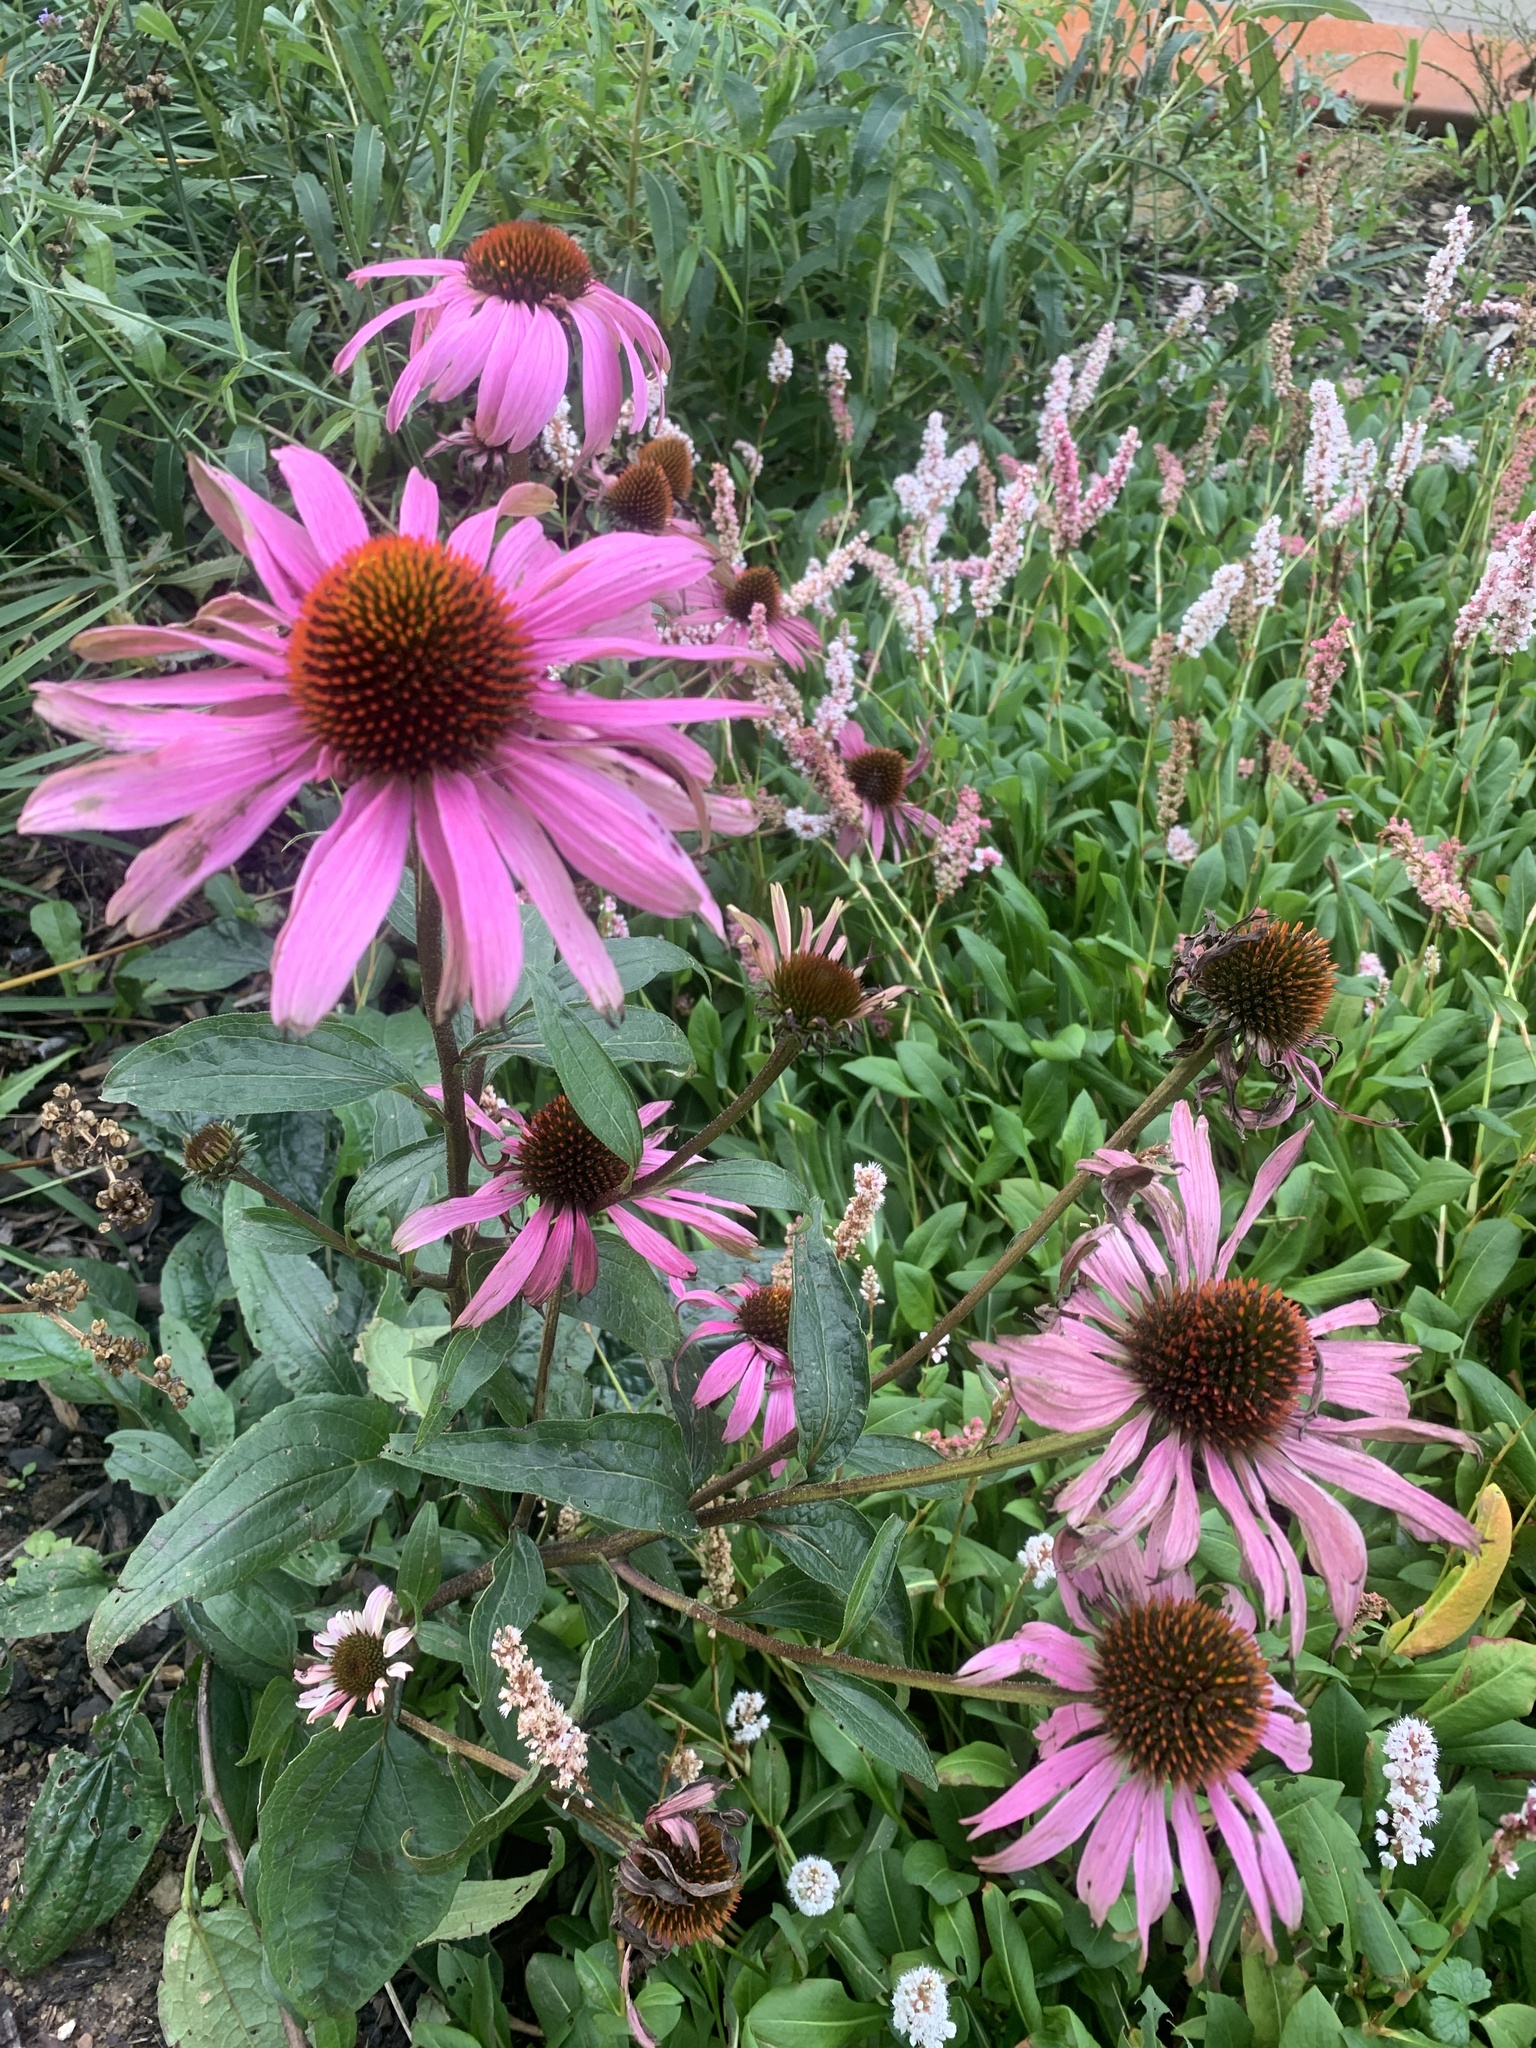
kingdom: Plantae
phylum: Tracheophyta
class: Magnoliopsida
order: Asterales
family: Asteraceae
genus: Echinacea
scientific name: Echinacea purpurea
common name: Broad-leaved purple coneflower
